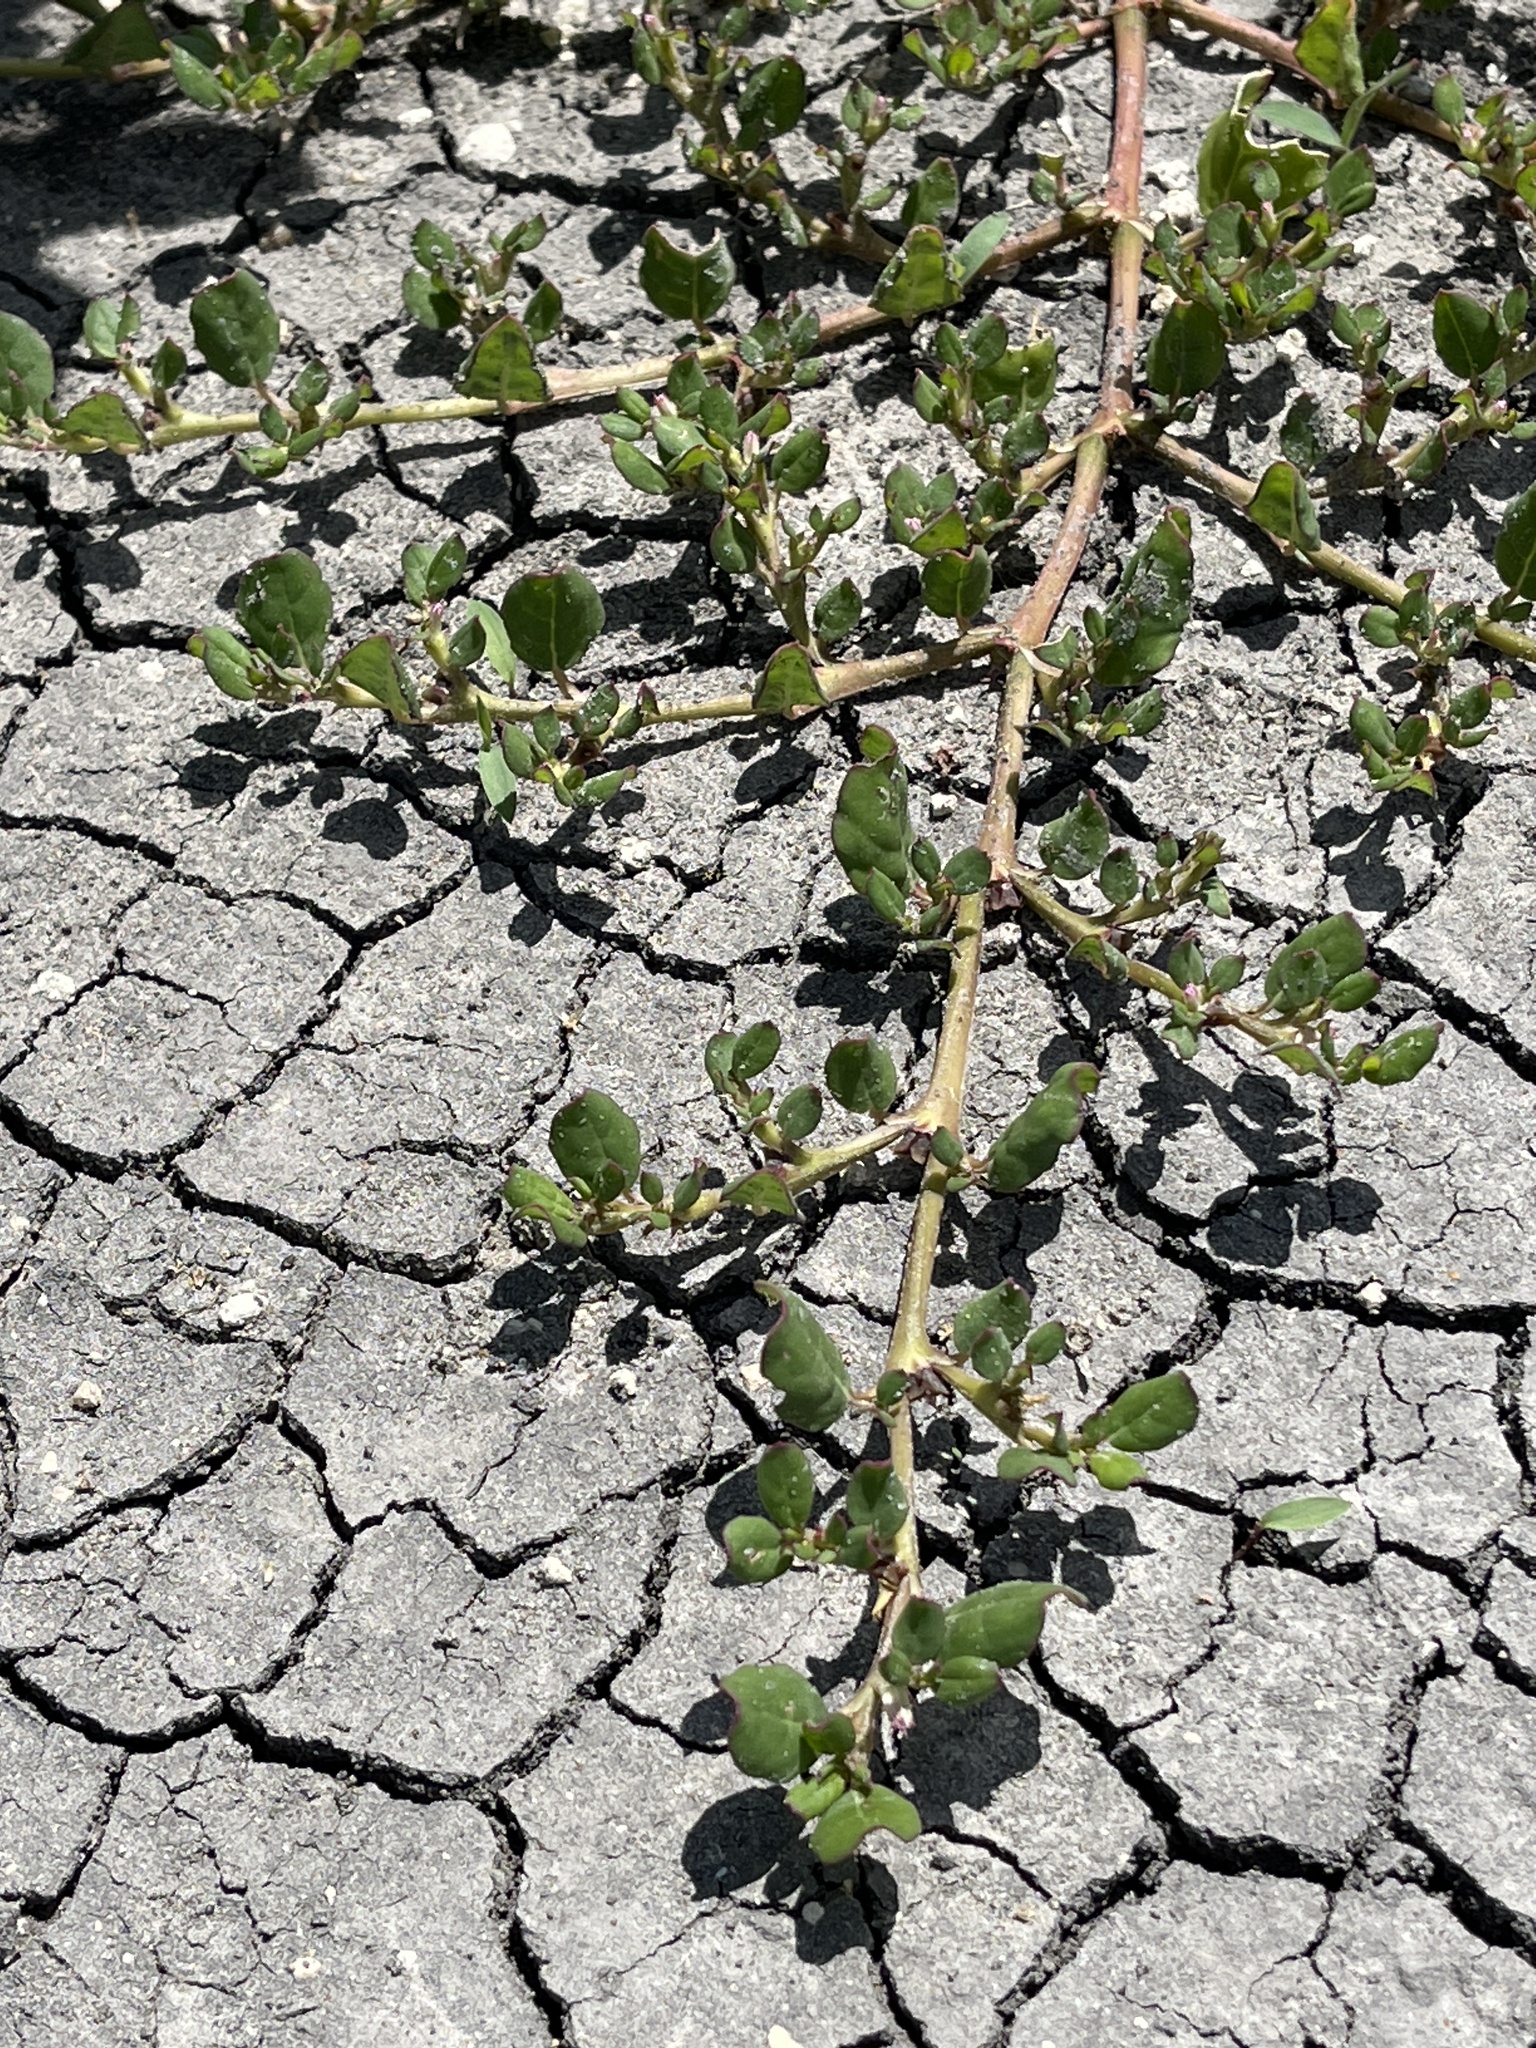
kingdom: Plantae
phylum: Tracheophyta
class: Magnoliopsida
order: Caryophyllales
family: Aizoaceae
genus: Trianthema
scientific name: Trianthema portulacastrum
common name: Desert horsepurslane
